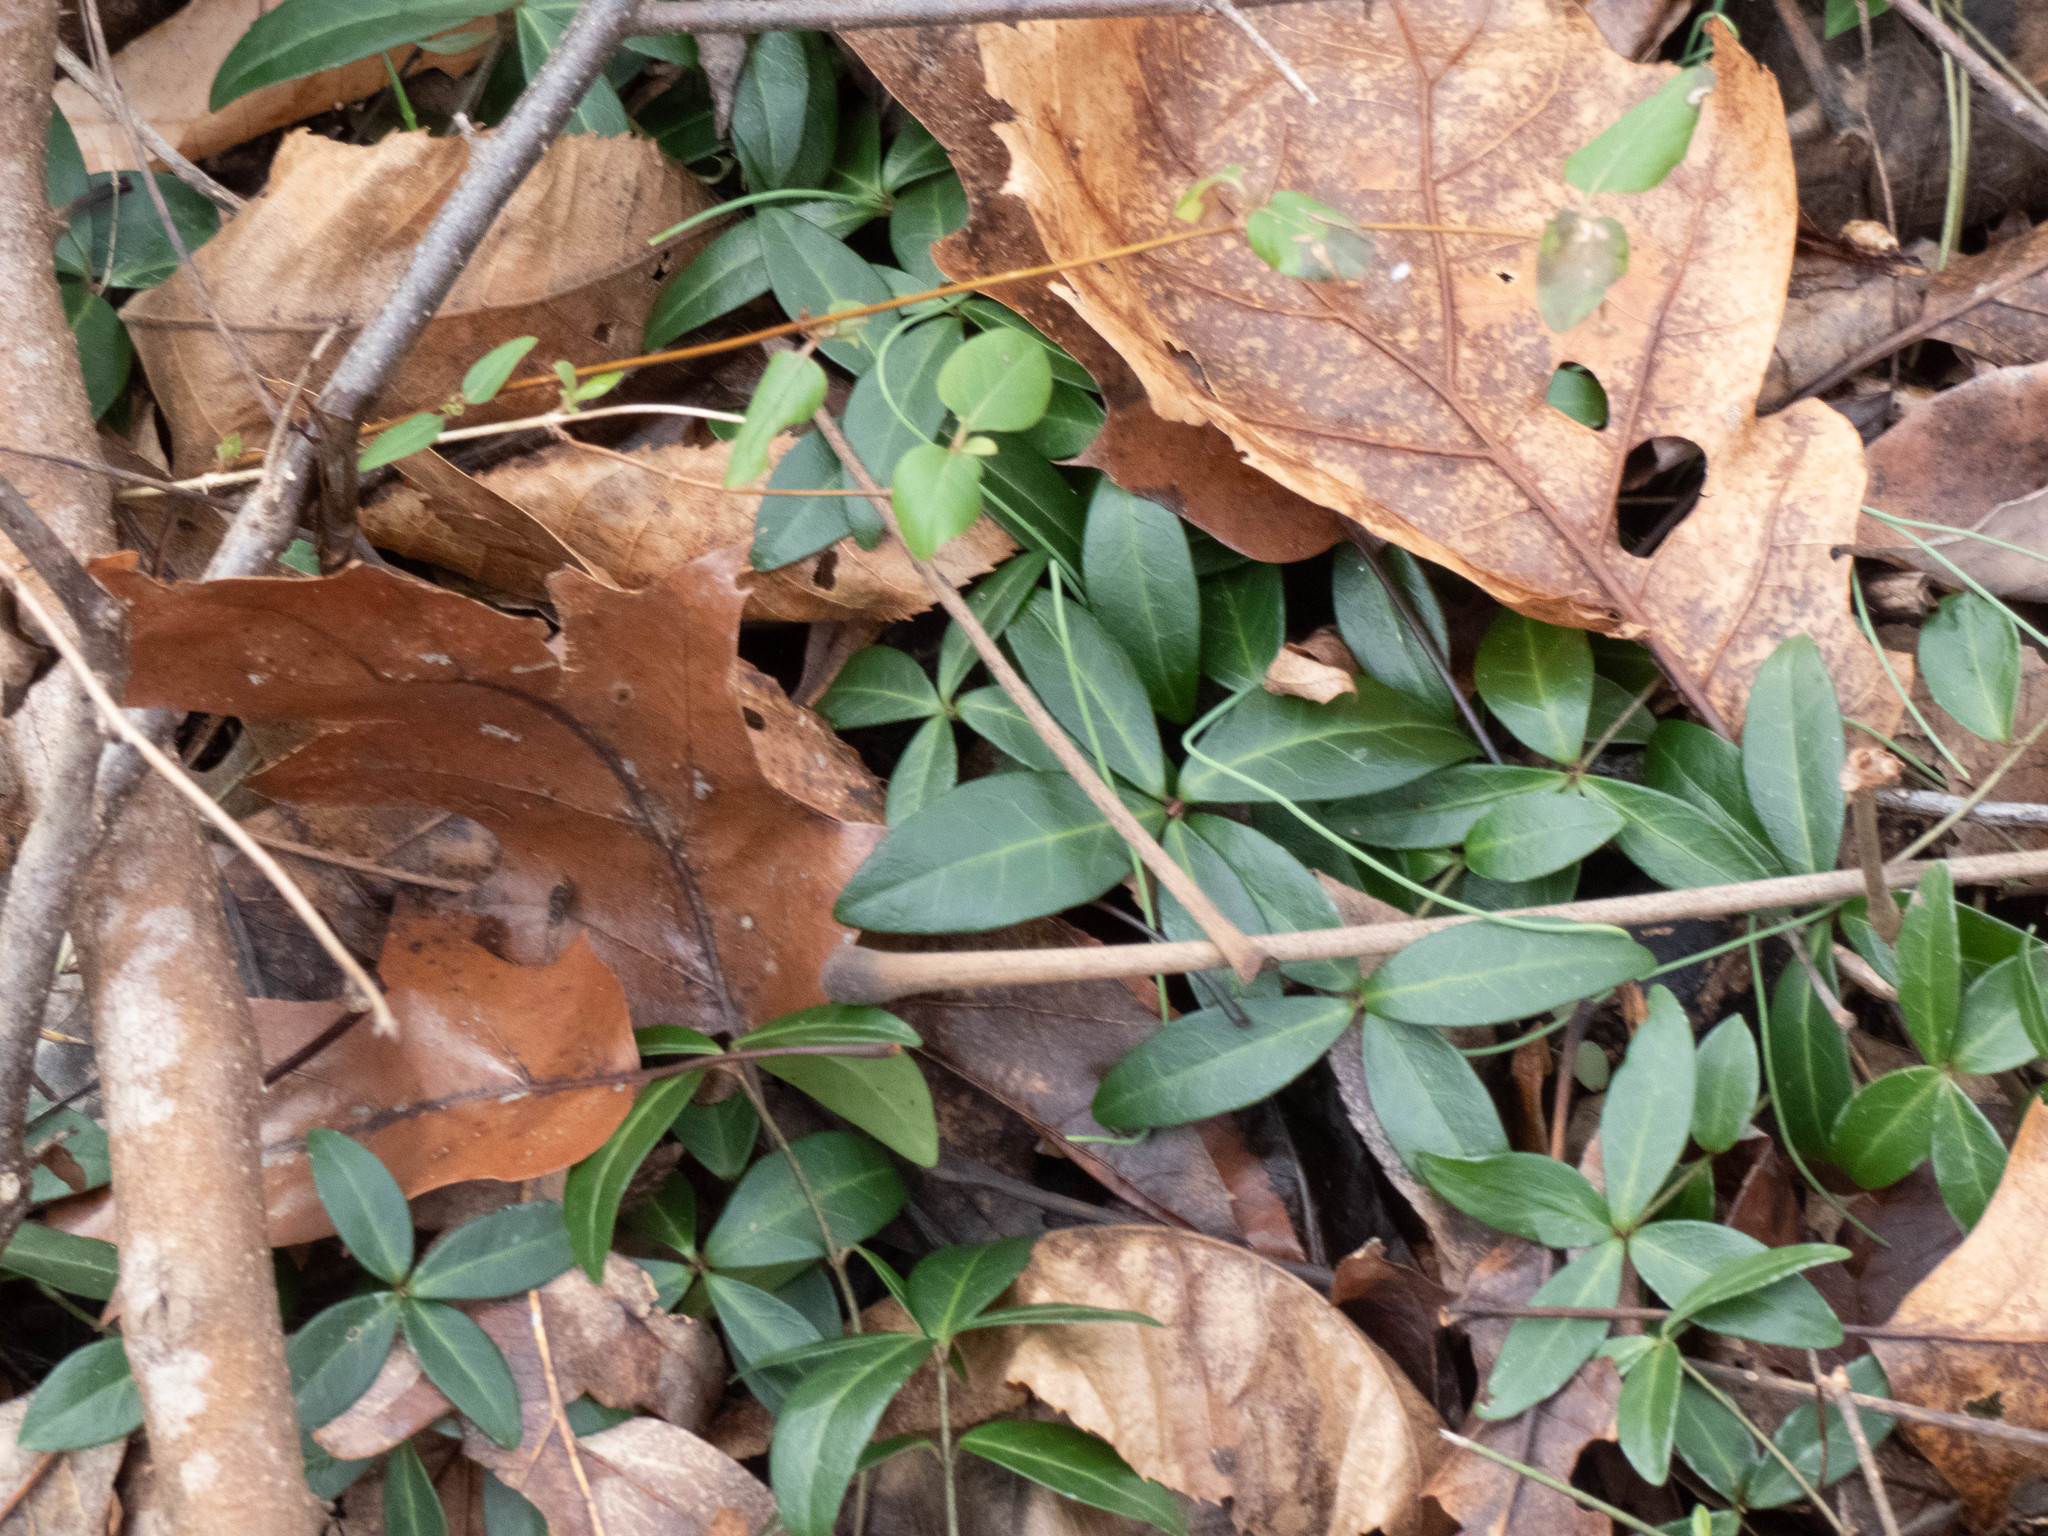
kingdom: Plantae
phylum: Tracheophyta
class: Magnoliopsida
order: Gentianales
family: Apocynaceae
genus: Vinca
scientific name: Vinca minor
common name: Lesser periwinkle
